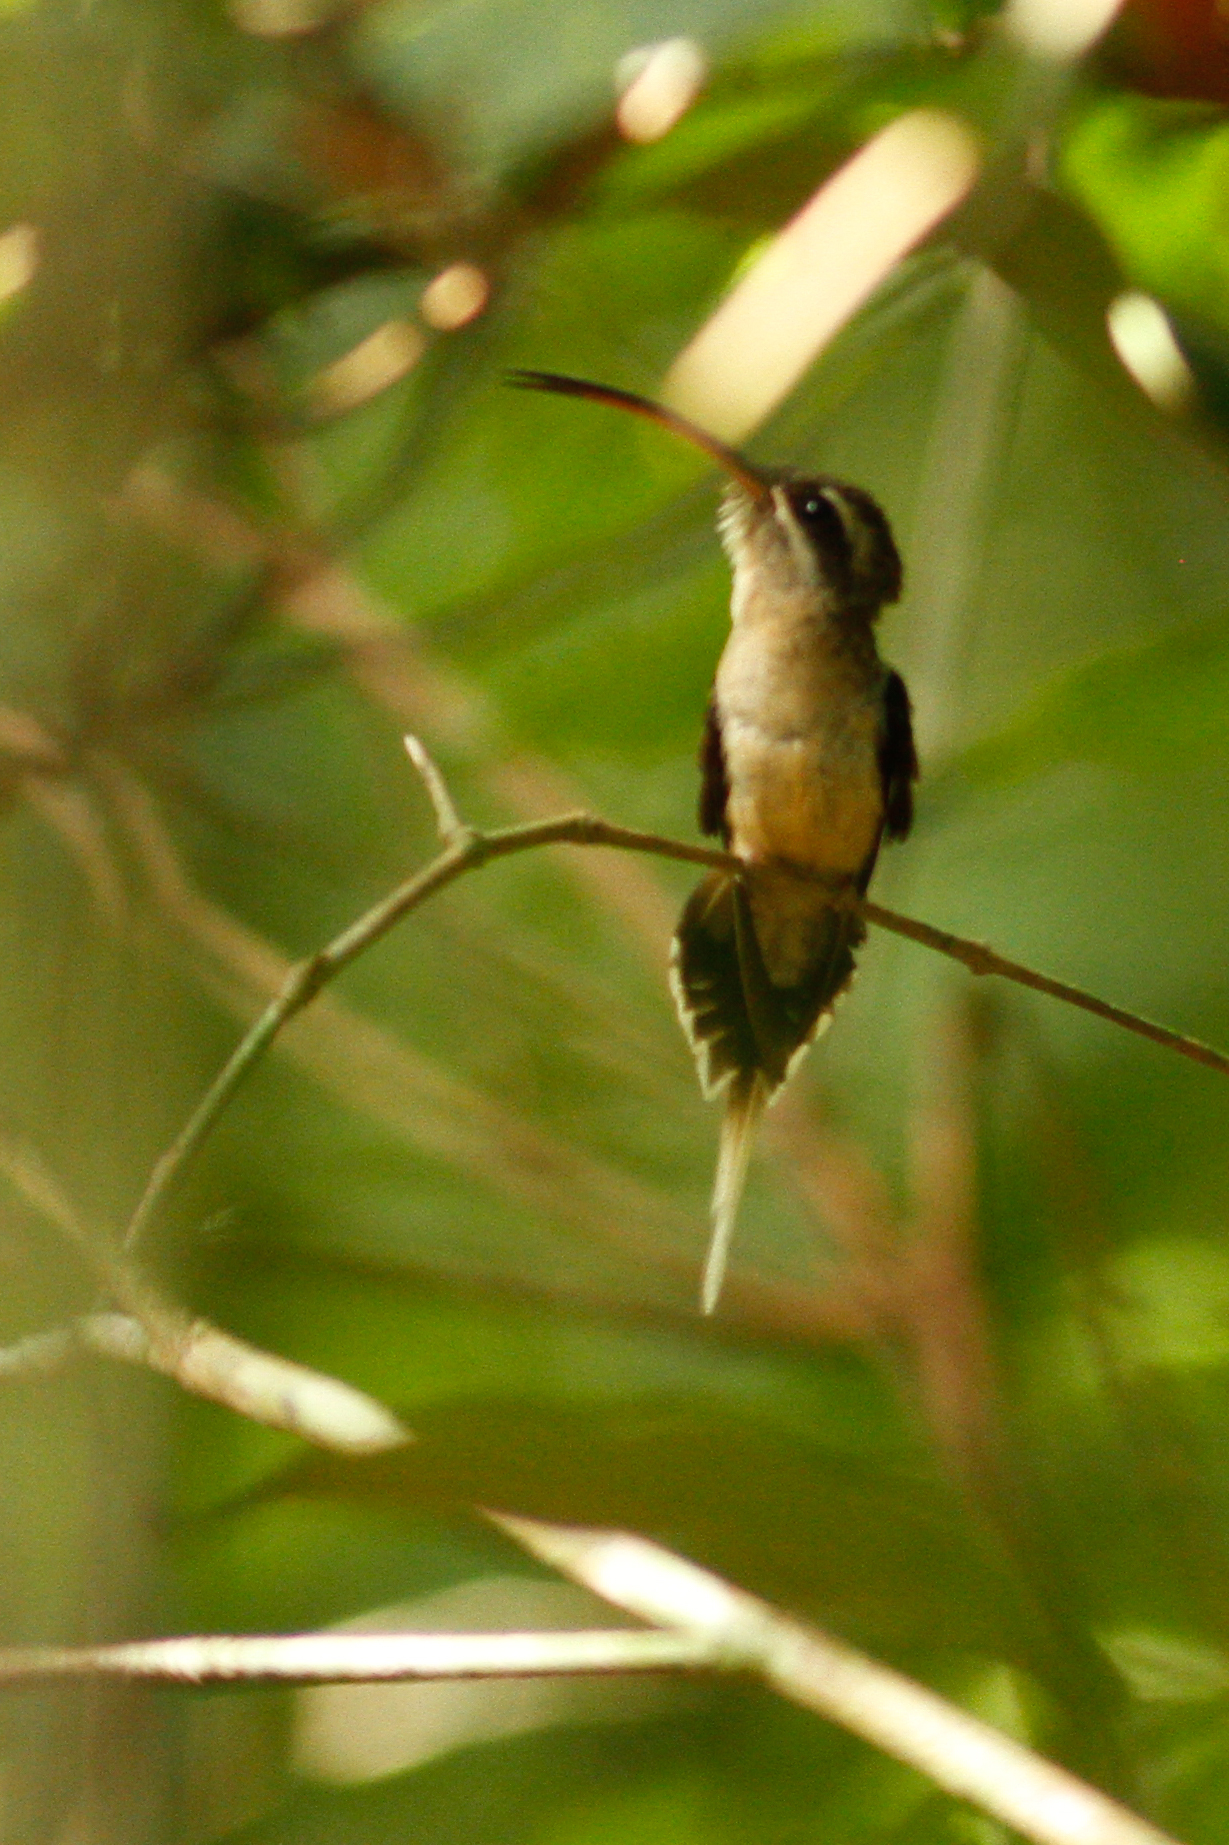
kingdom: Animalia
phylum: Chordata
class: Aves
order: Apodiformes
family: Trochilidae
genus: Phaethornis
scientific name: Phaethornis superciliosus
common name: Long-tailed hermit
